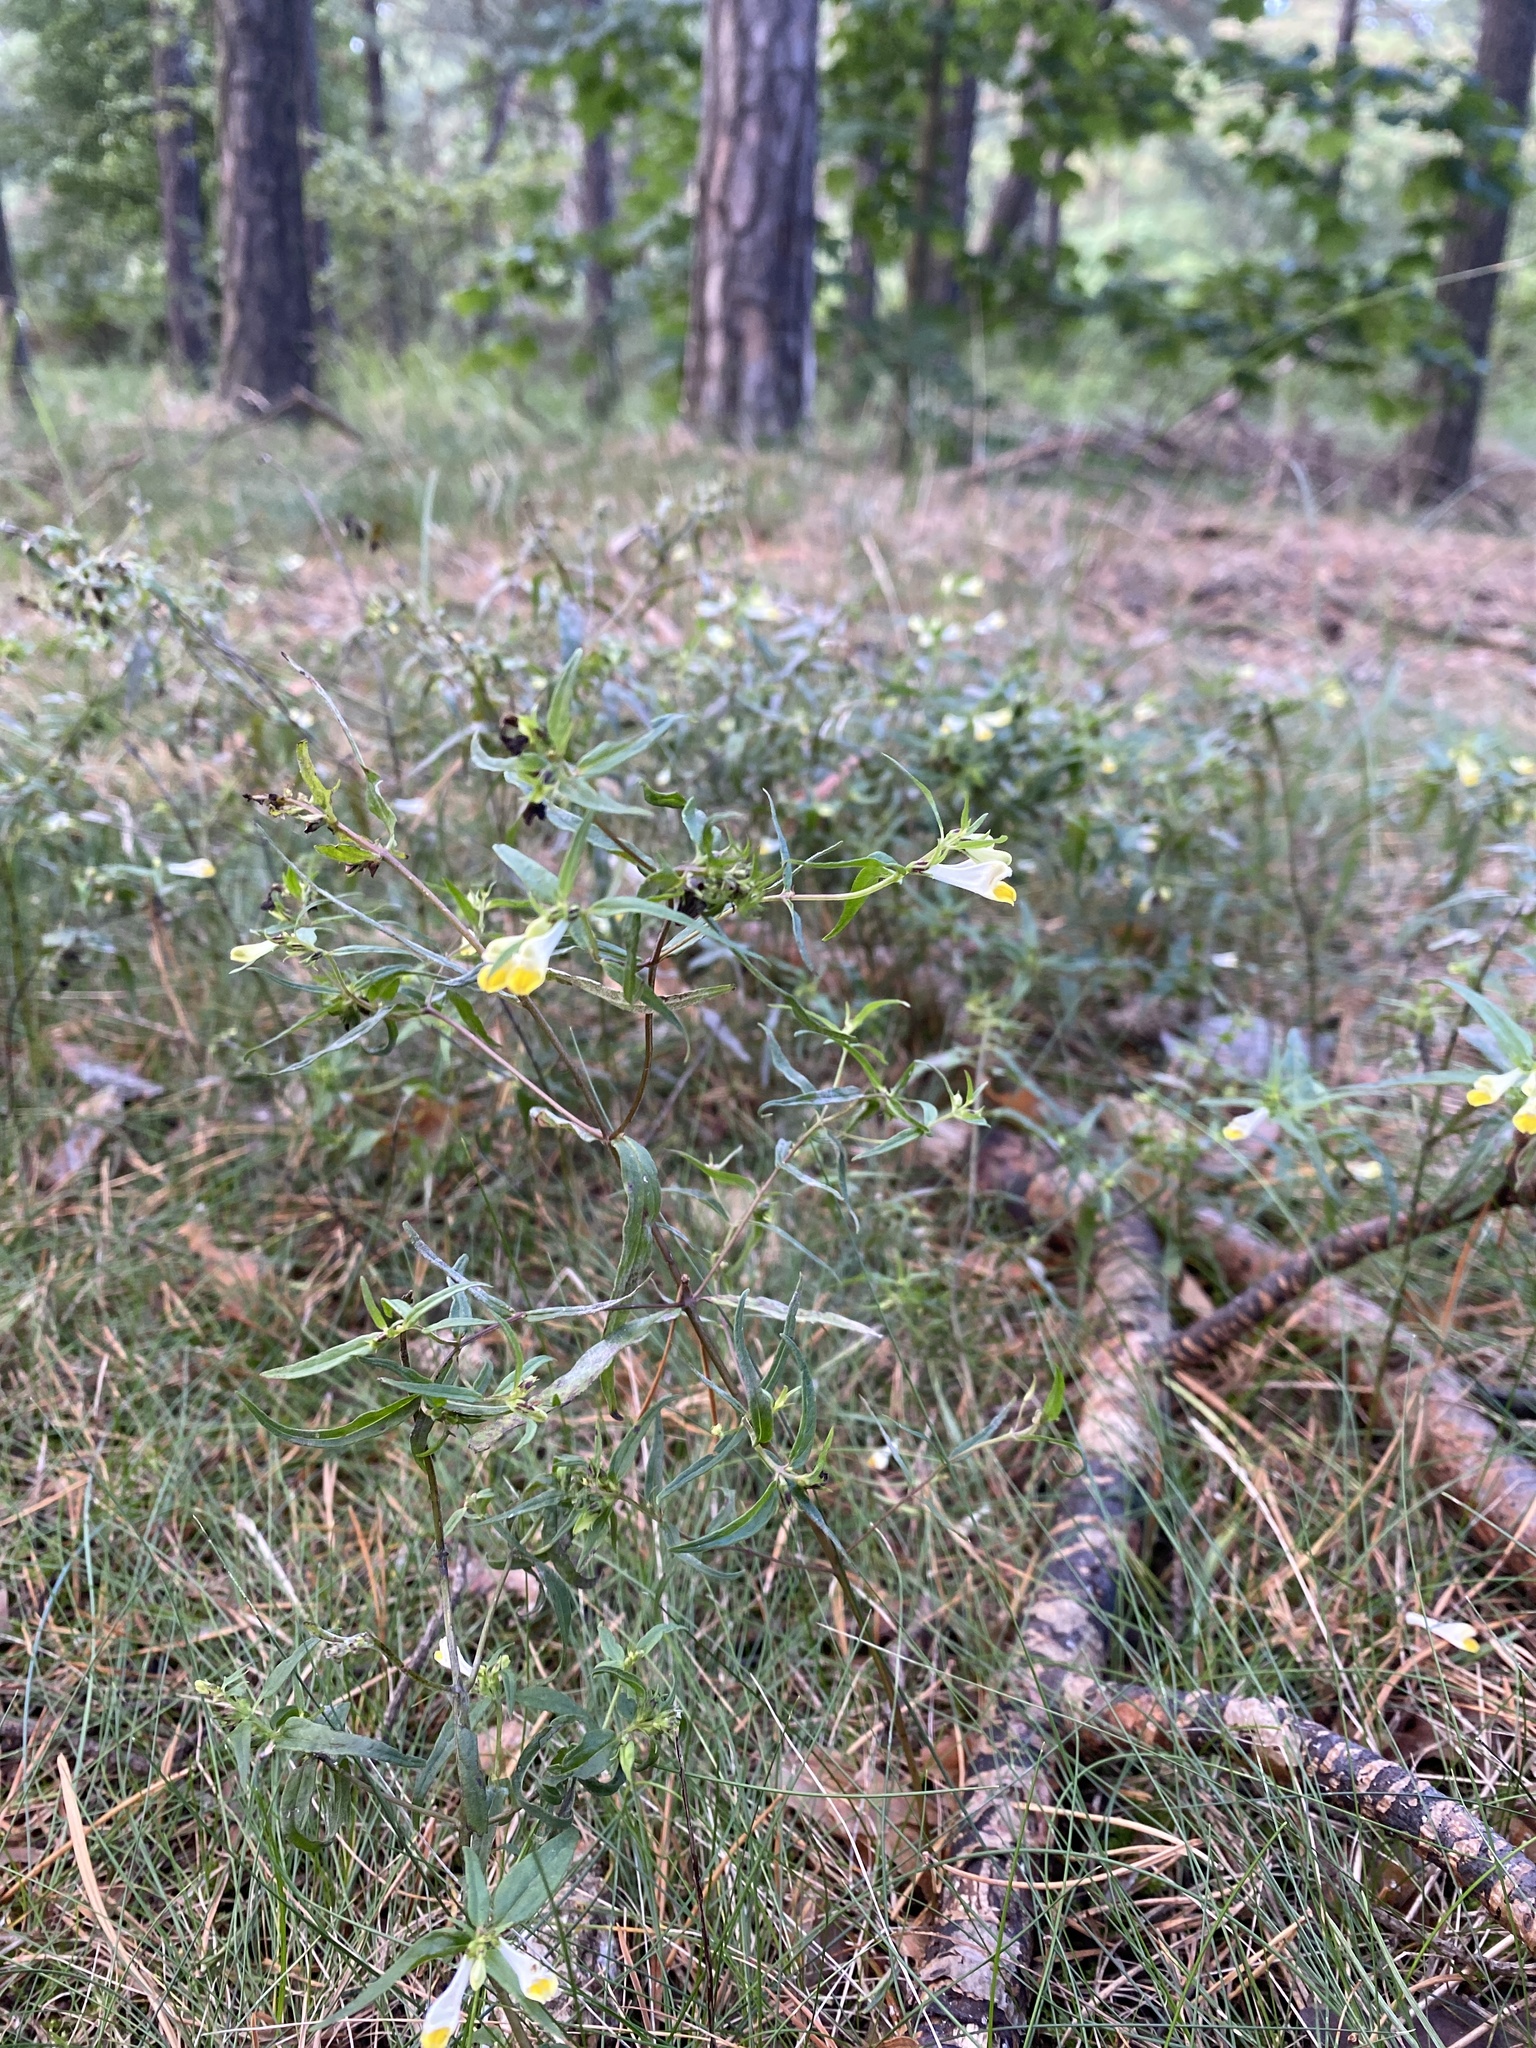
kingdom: Plantae
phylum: Tracheophyta
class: Magnoliopsida
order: Lamiales
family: Orobanchaceae
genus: Melampyrum
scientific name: Melampyrum pratense
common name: Common cow-wheat
